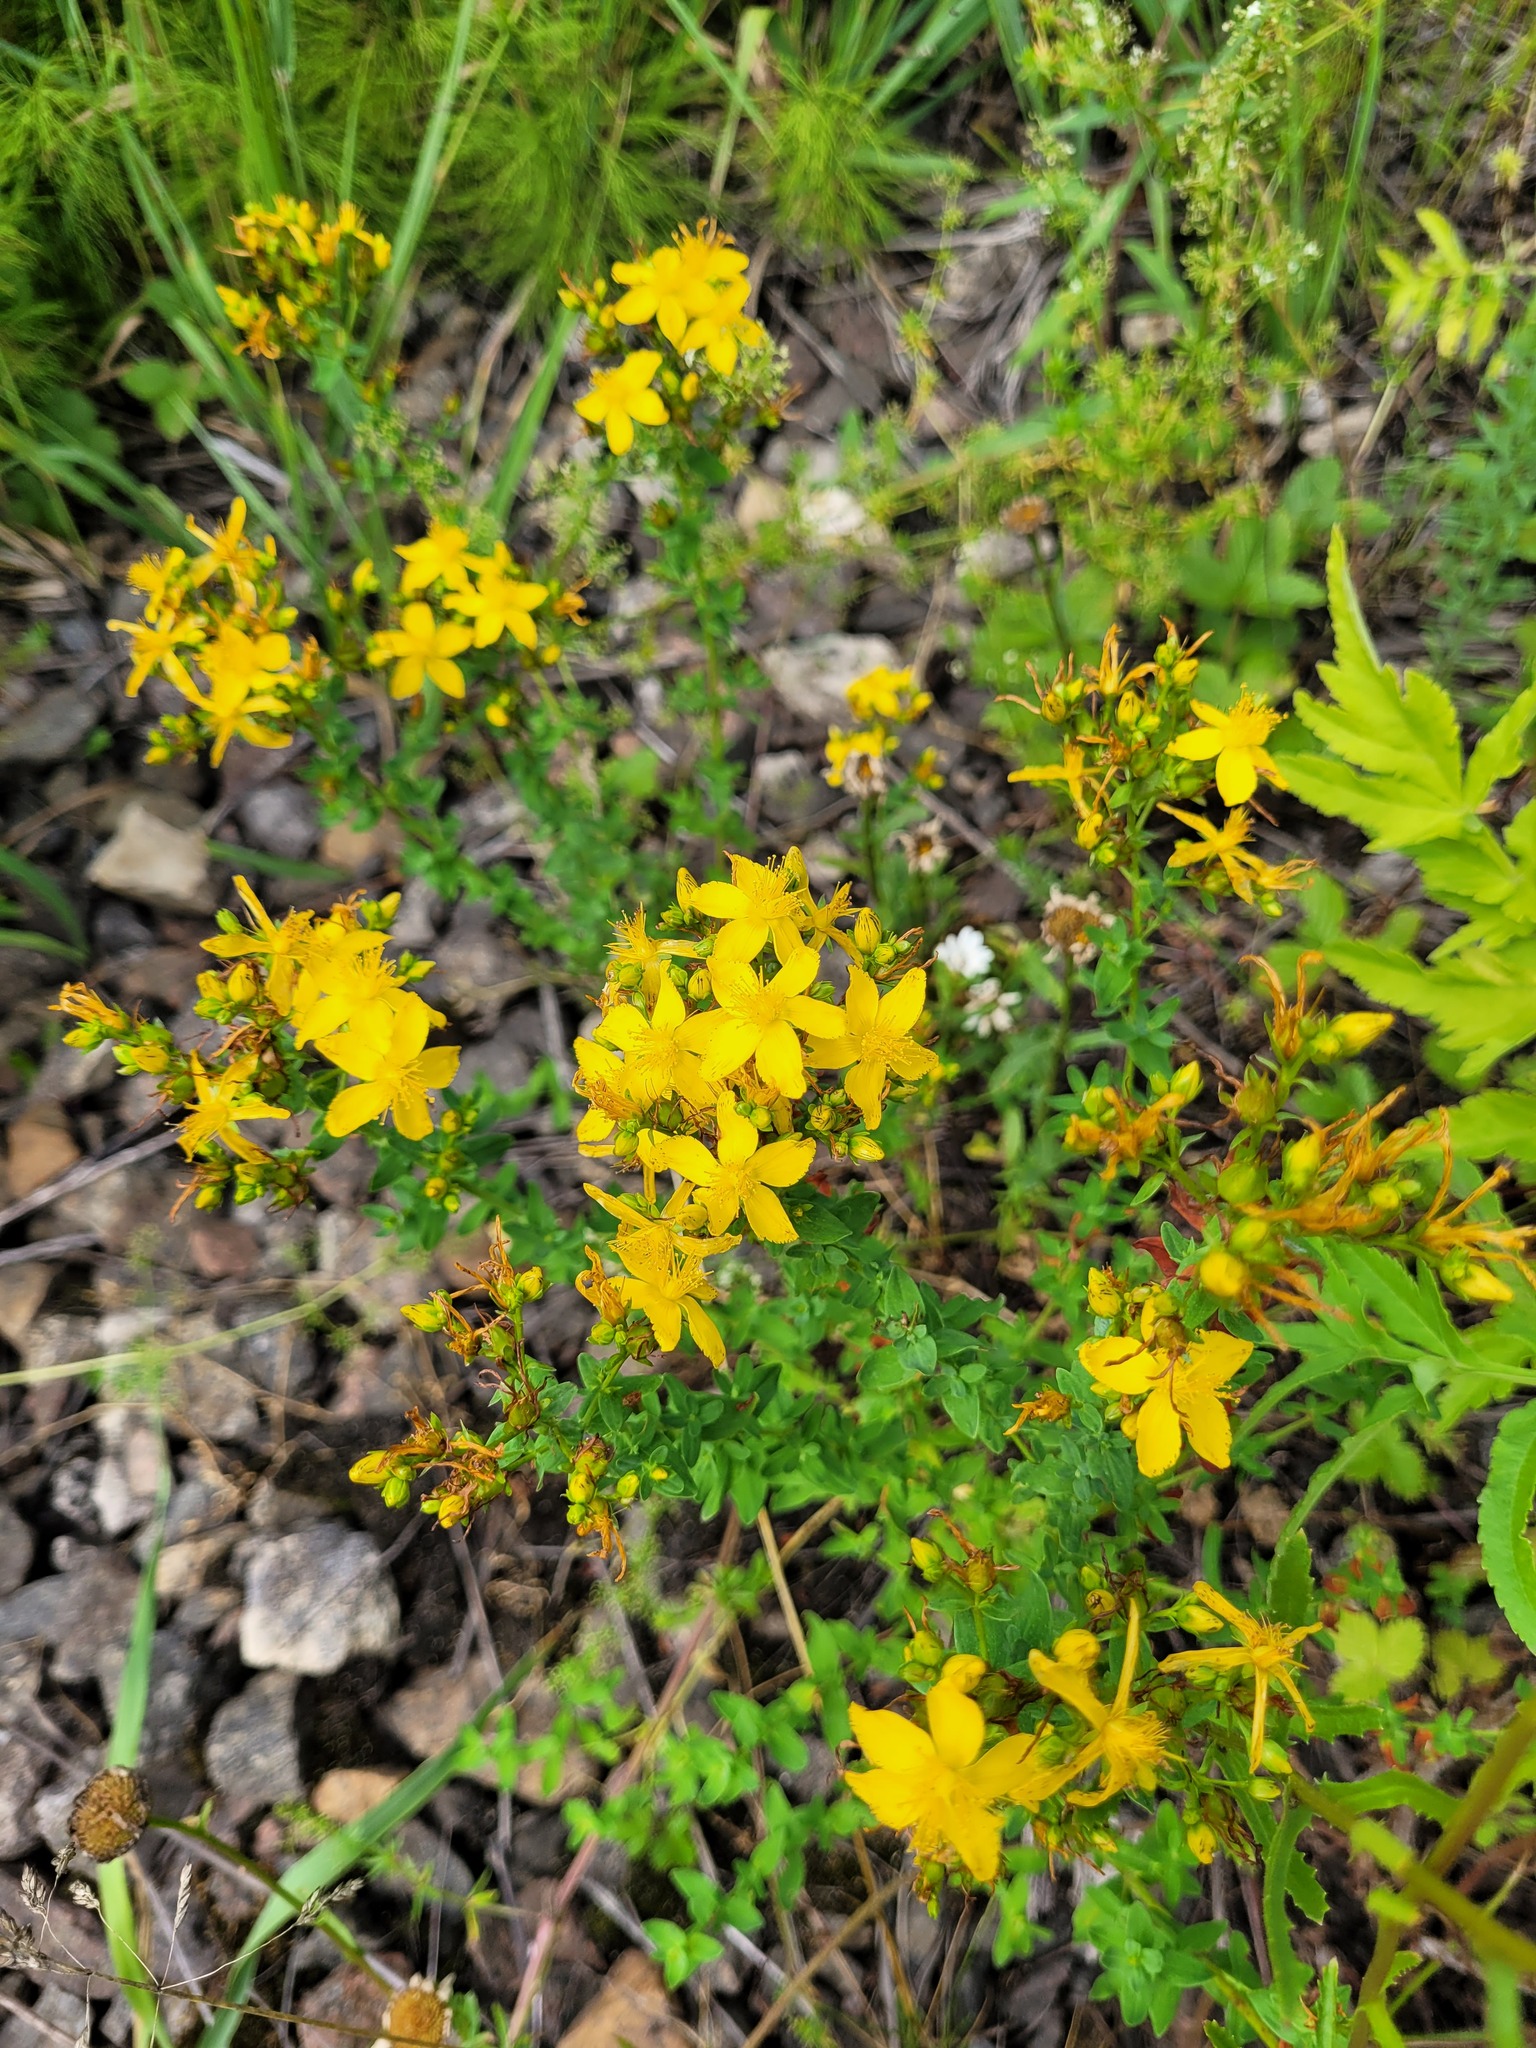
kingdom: Plantae
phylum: Tracheophyta
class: Magnoliopsida
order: Malpighiales
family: Hypericaceae
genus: Hypericum
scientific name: Hypericum perforatum
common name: Common st. johnswort
